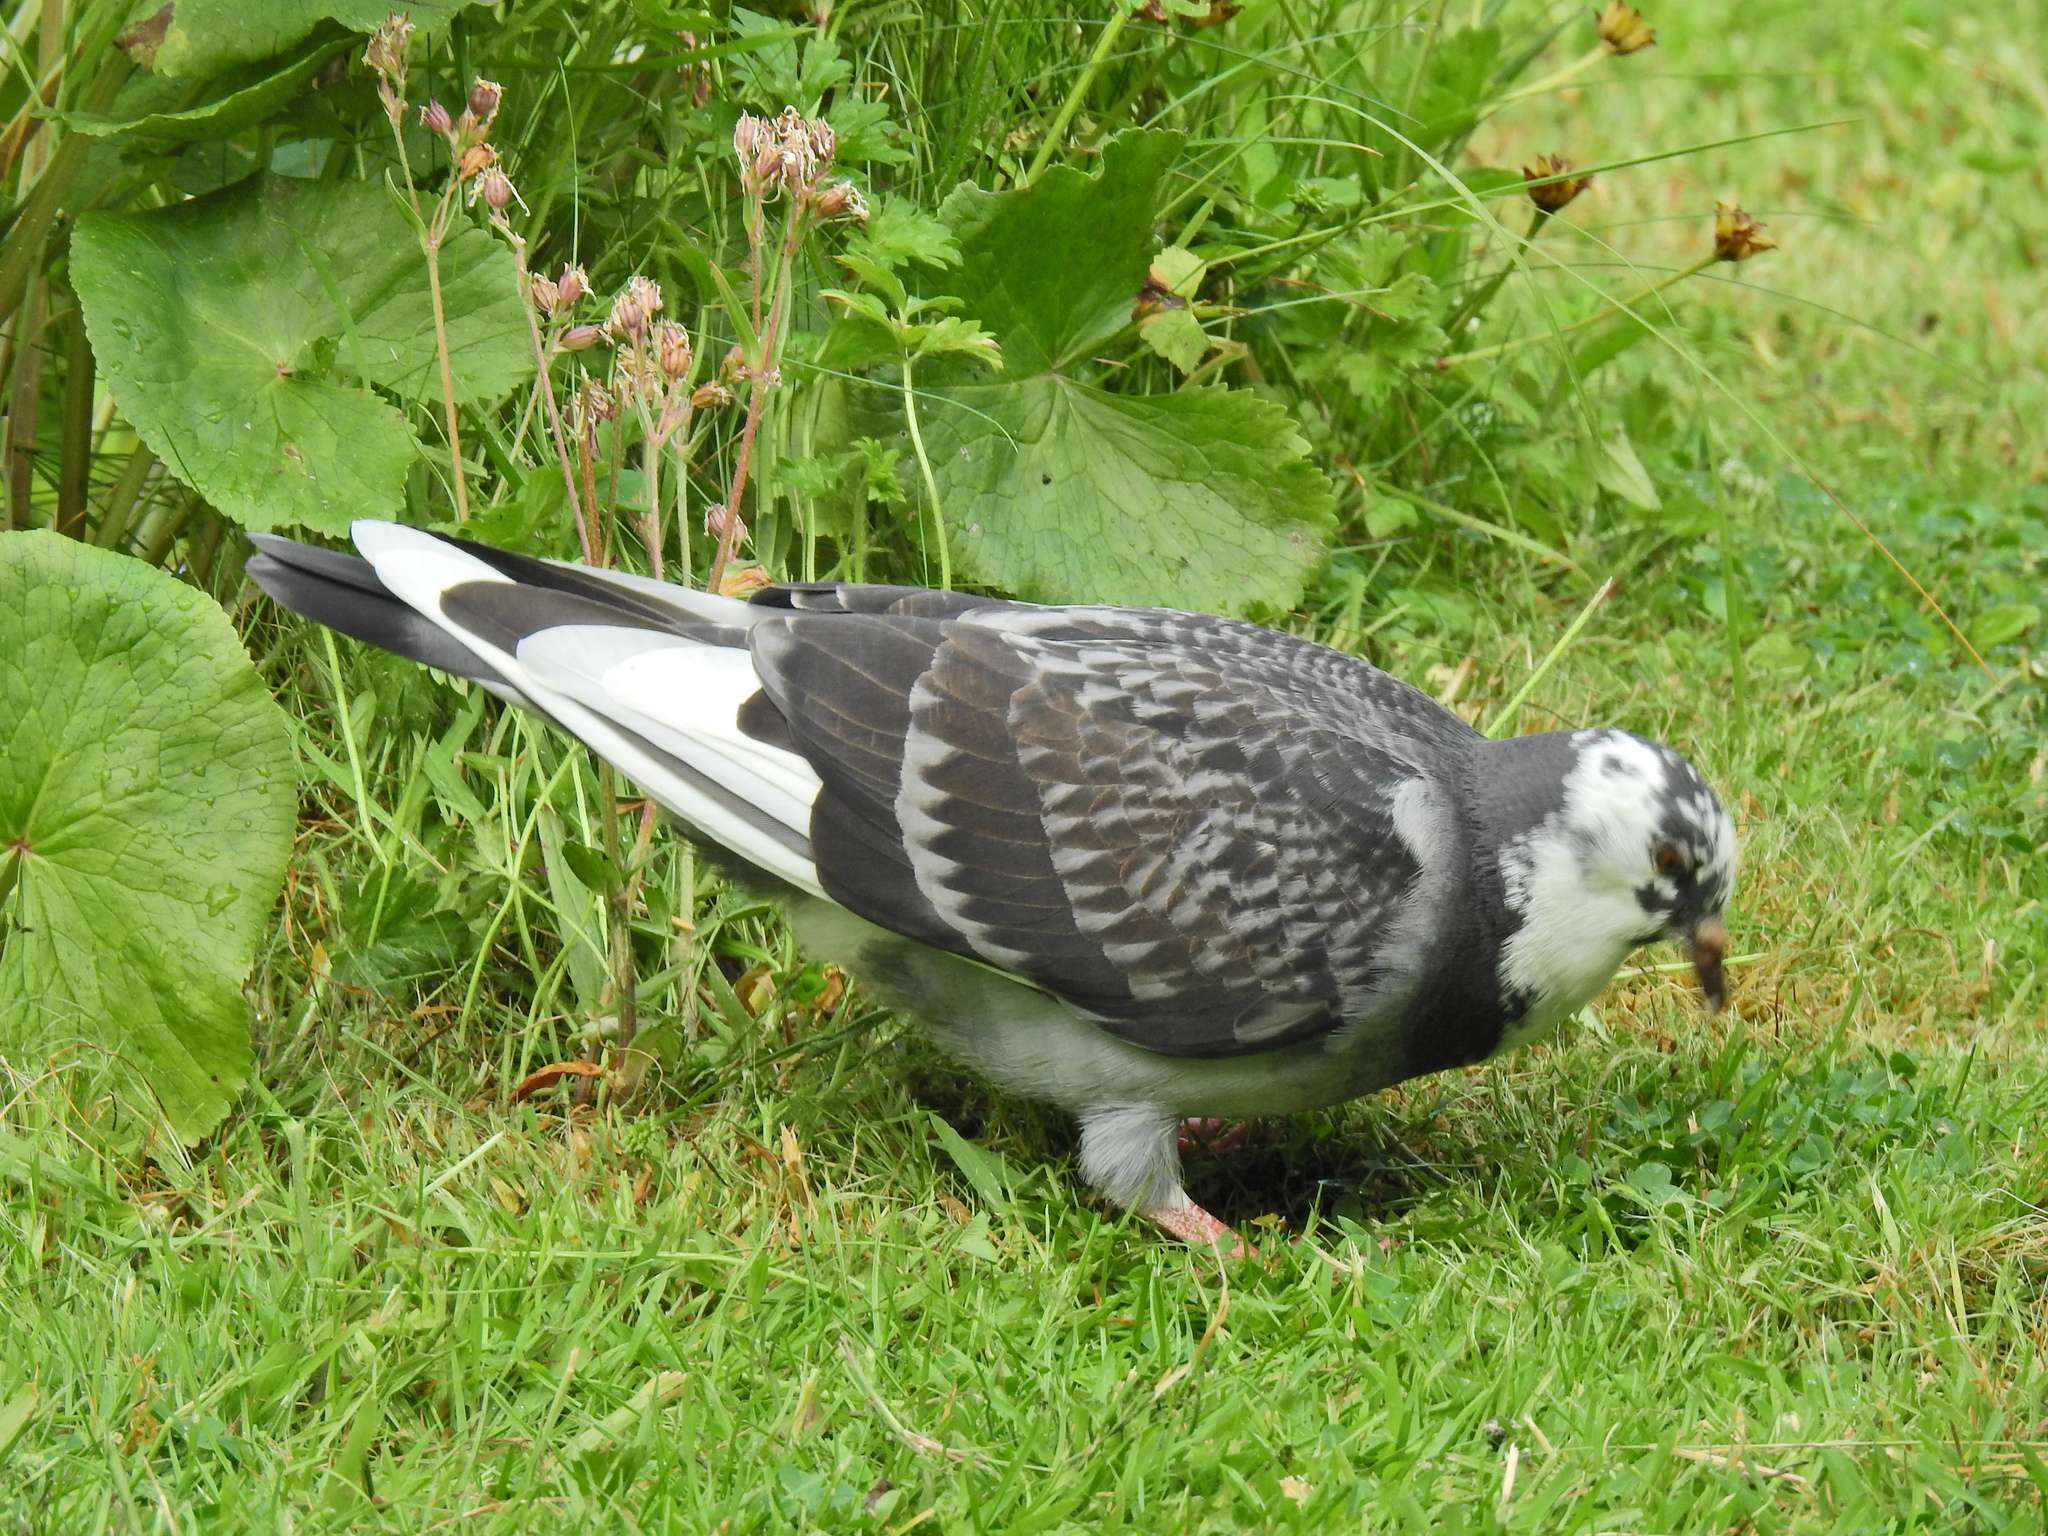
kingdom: Animalia
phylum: Chordata
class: Aves
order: Columbiformes
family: Columbidae
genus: Columba
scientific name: Columba livia
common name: Rock pigeon
